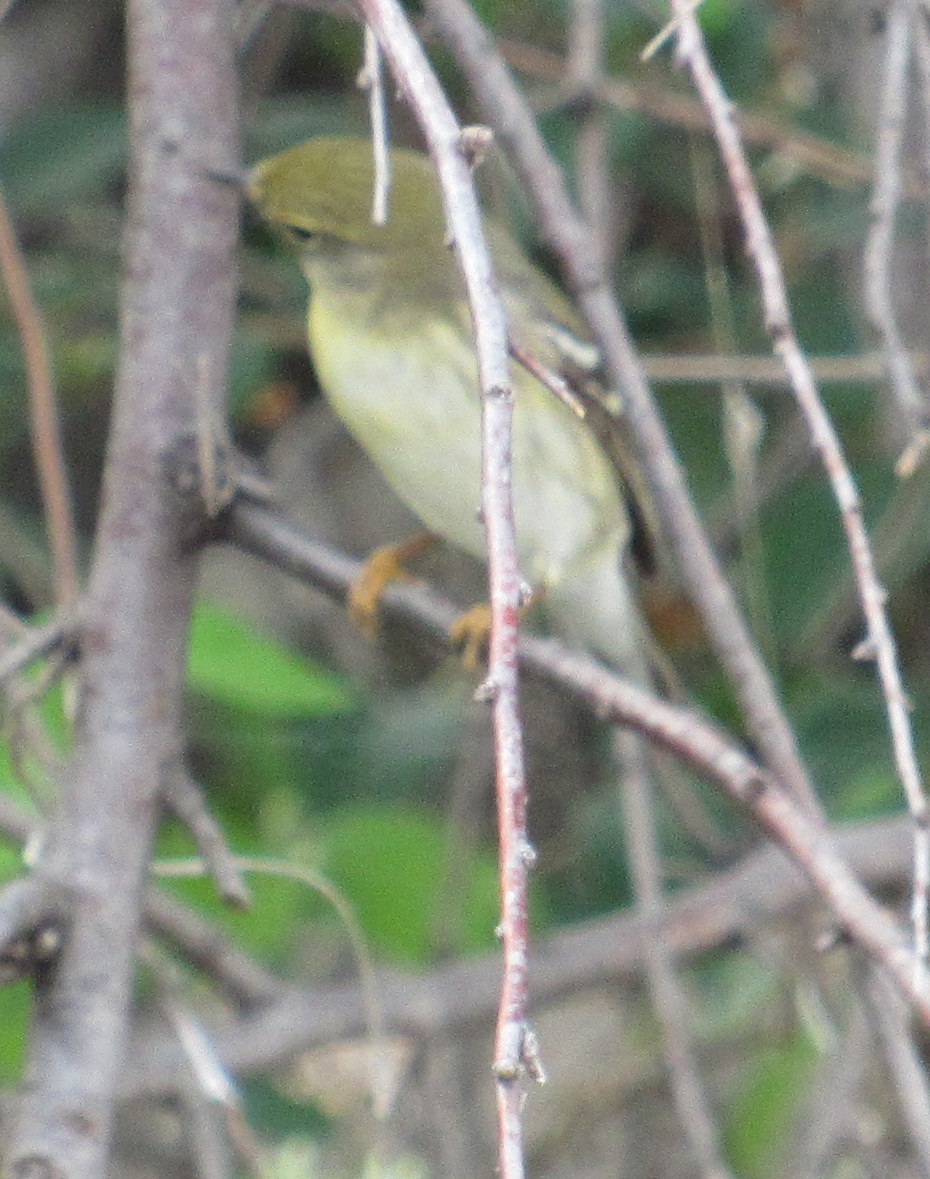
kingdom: Animalia
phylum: Chordata
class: Aves
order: Passeriformes
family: Parulidae
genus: Setophaga
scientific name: Setophaga striata
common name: Blackpoll warbler
